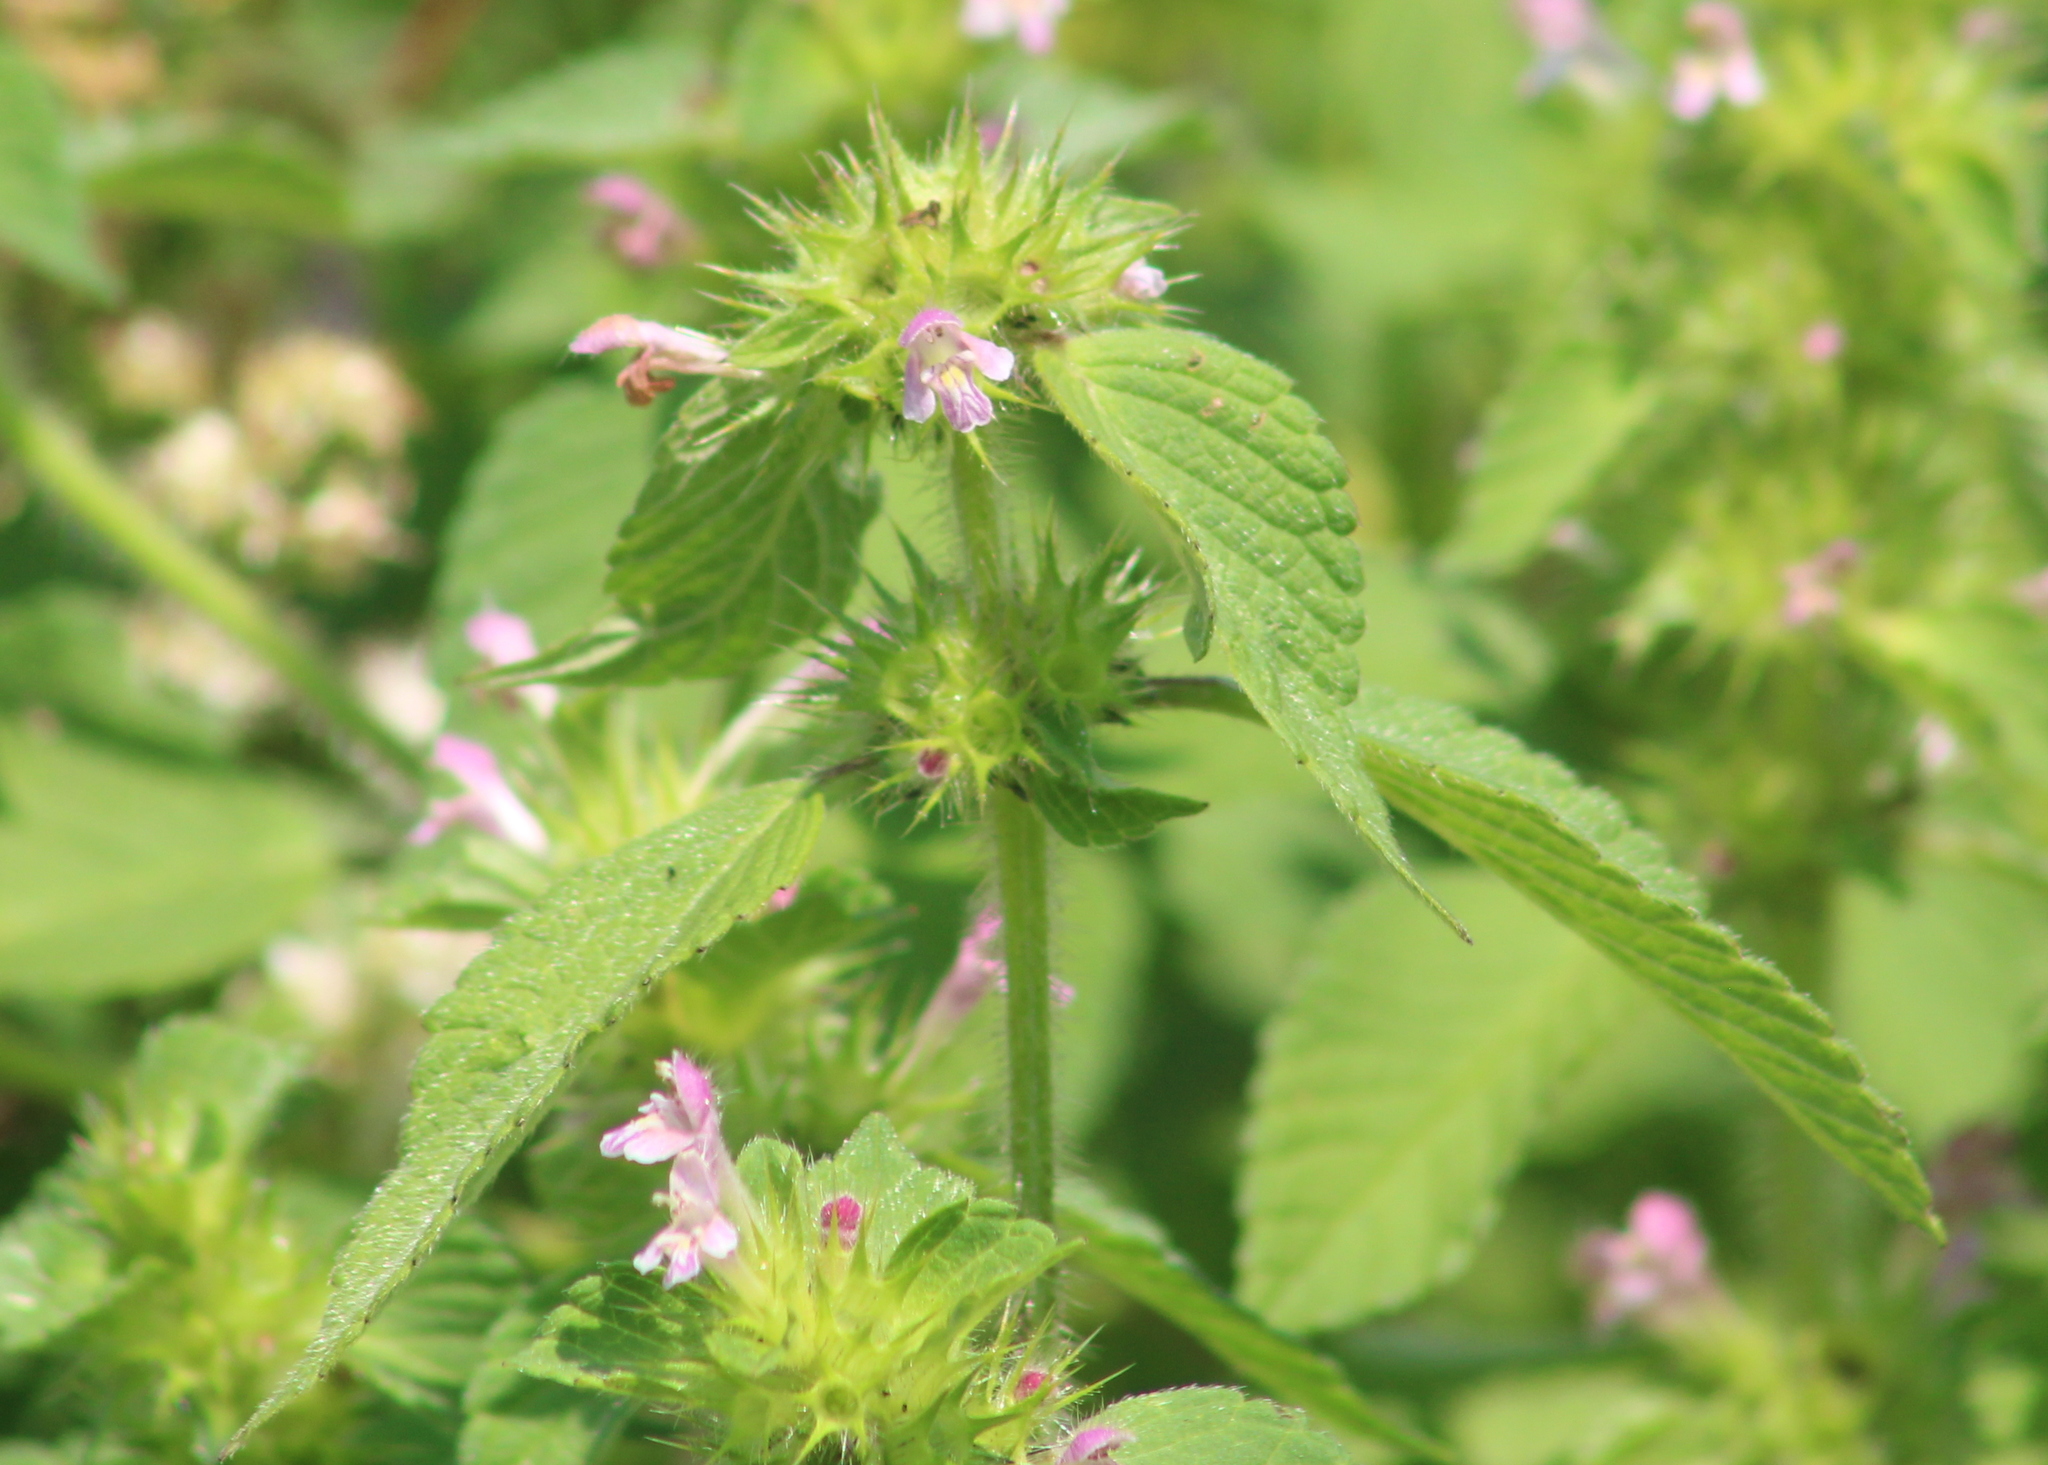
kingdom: Plantae
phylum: Tracheophyta
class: Magnoliopsida
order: Lamiales
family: Lamiaceae
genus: Galeopsis
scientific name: Galeopsis bifida
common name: Bifid hemp-nettle
